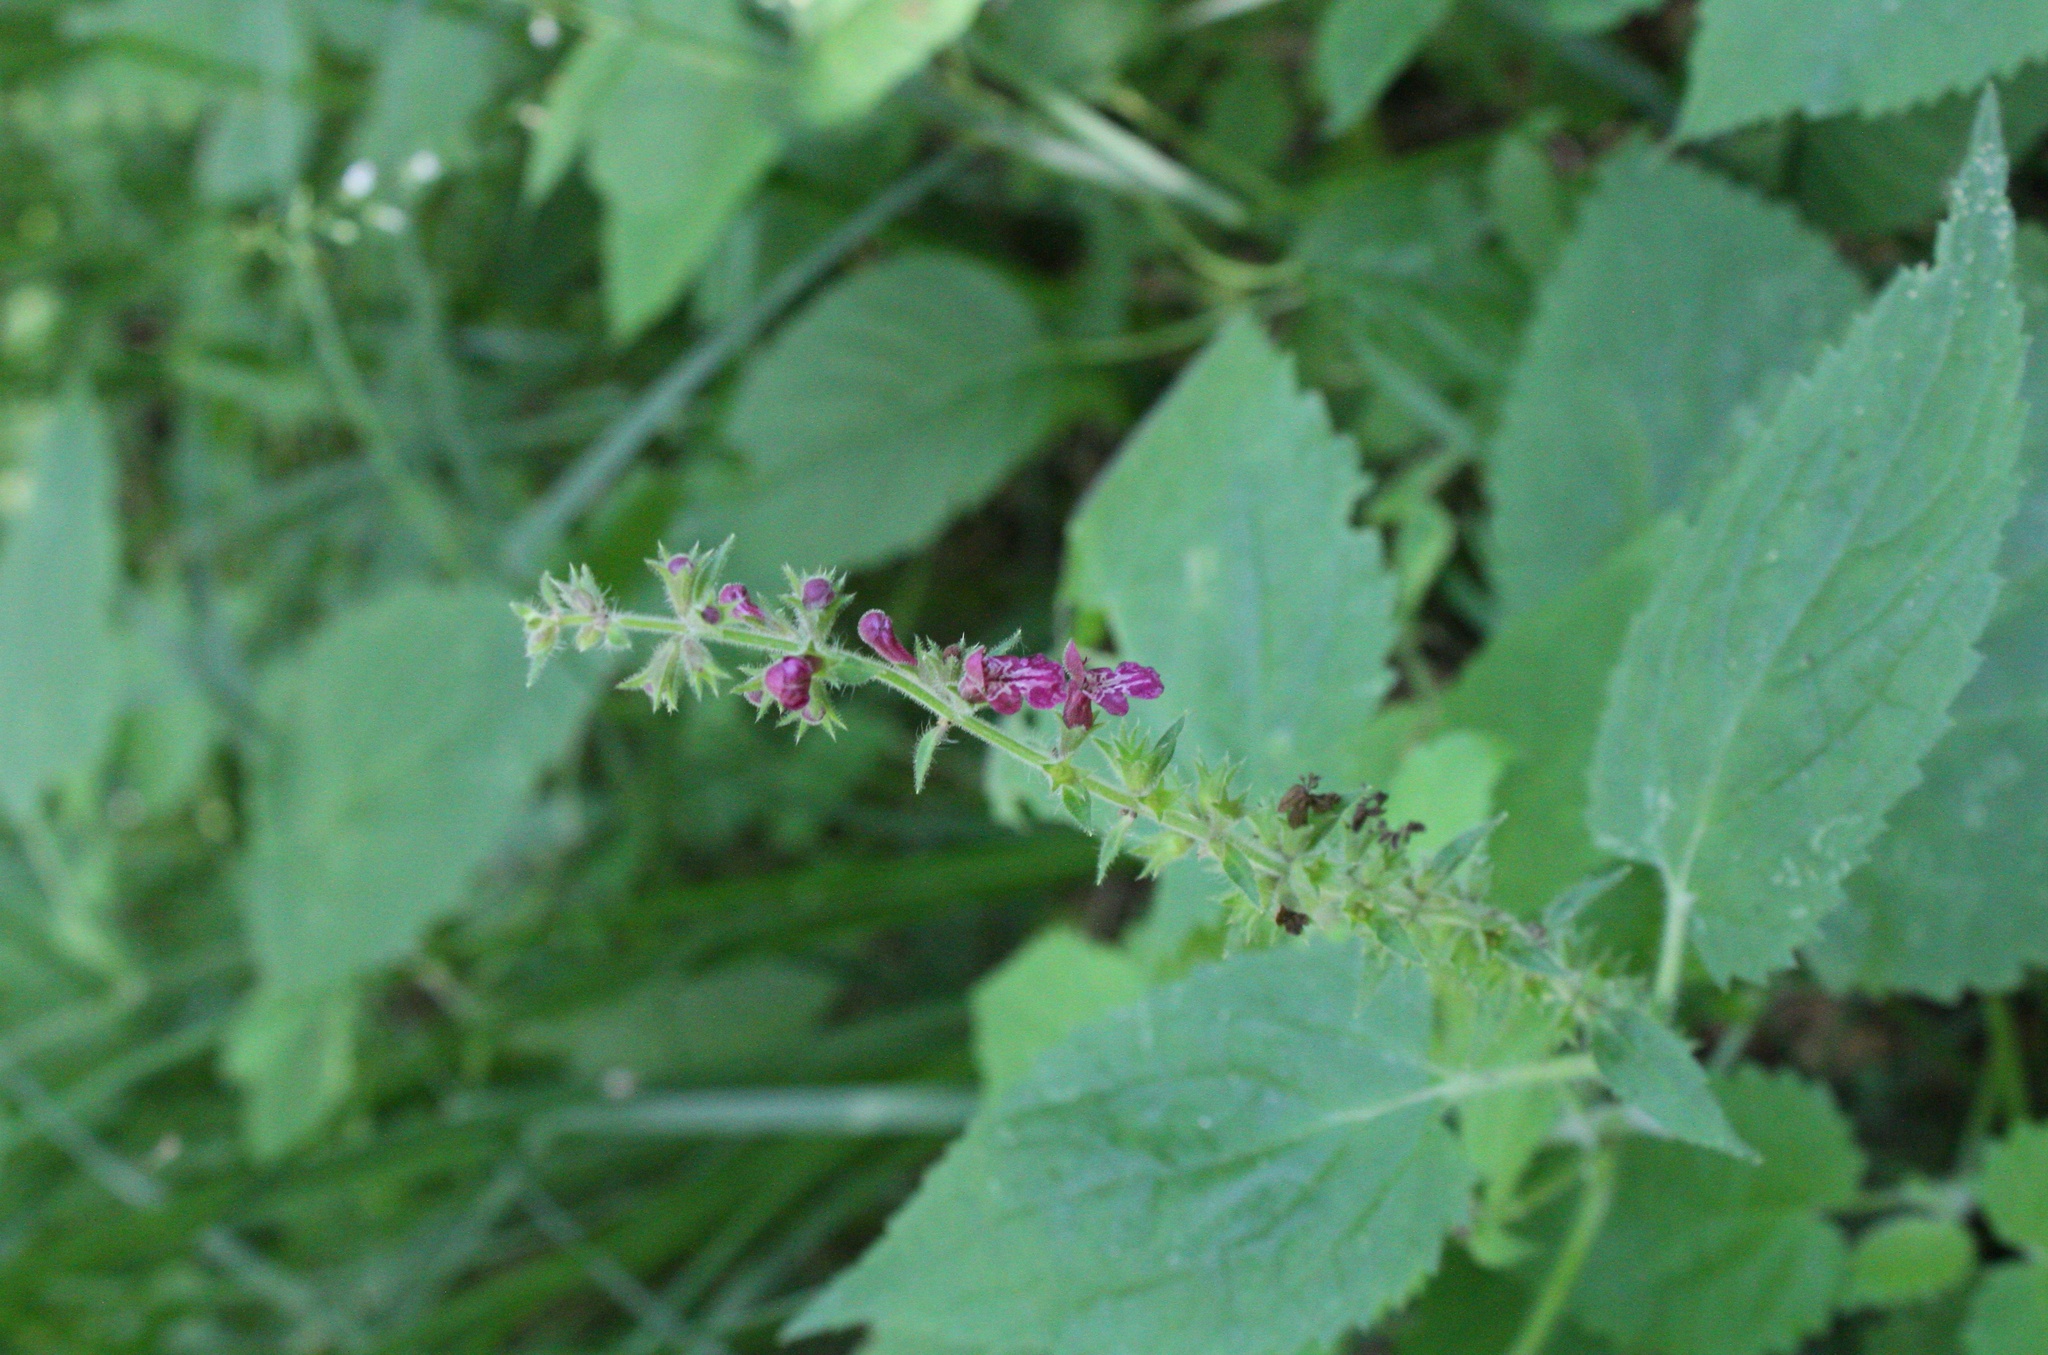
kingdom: Plantae
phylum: Tracheophyta
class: Magnoliopsida
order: Lamiales
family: Lamiaceae
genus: Stachys
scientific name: Stachys sylvatica
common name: Hedge woundwort
